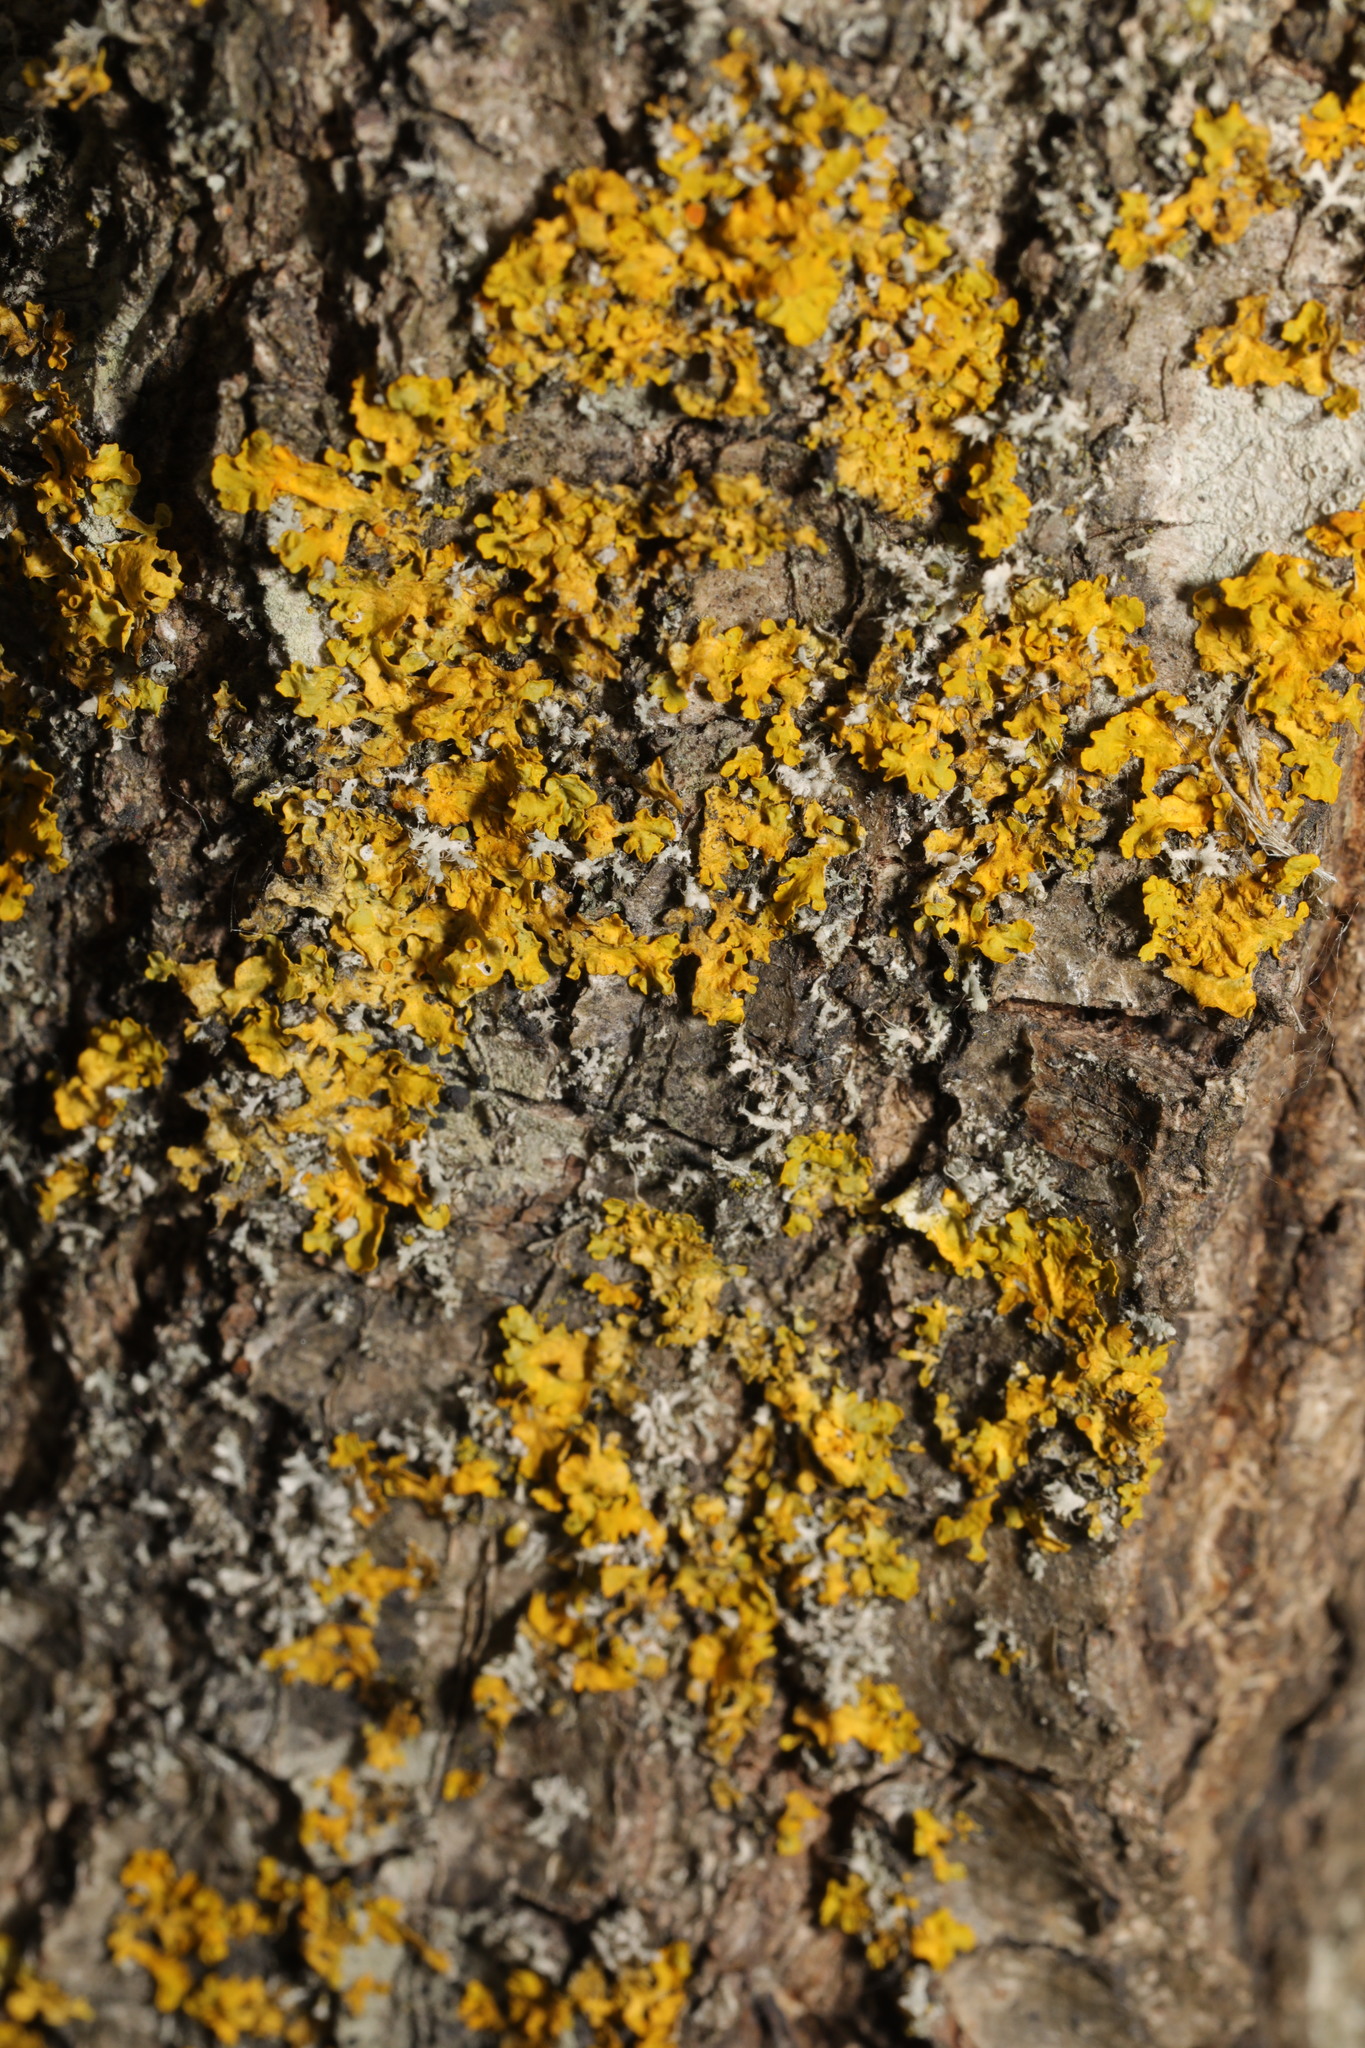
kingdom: Fungi
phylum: Ascomycota
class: Lecanoromycetes
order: Teloschistales
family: Teloschistaceae
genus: Xanthoria
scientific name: Xanthoria parietina
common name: Common orange lichen
